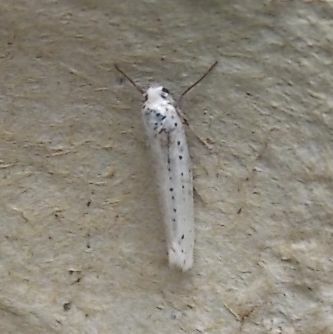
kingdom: Animalia
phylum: Arthropoda
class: Insecta
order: Lepidoptera
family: Yponomeutidae
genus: Yponomeuta
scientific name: Yponomeuta evonymella
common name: Bird-cherry ermine
